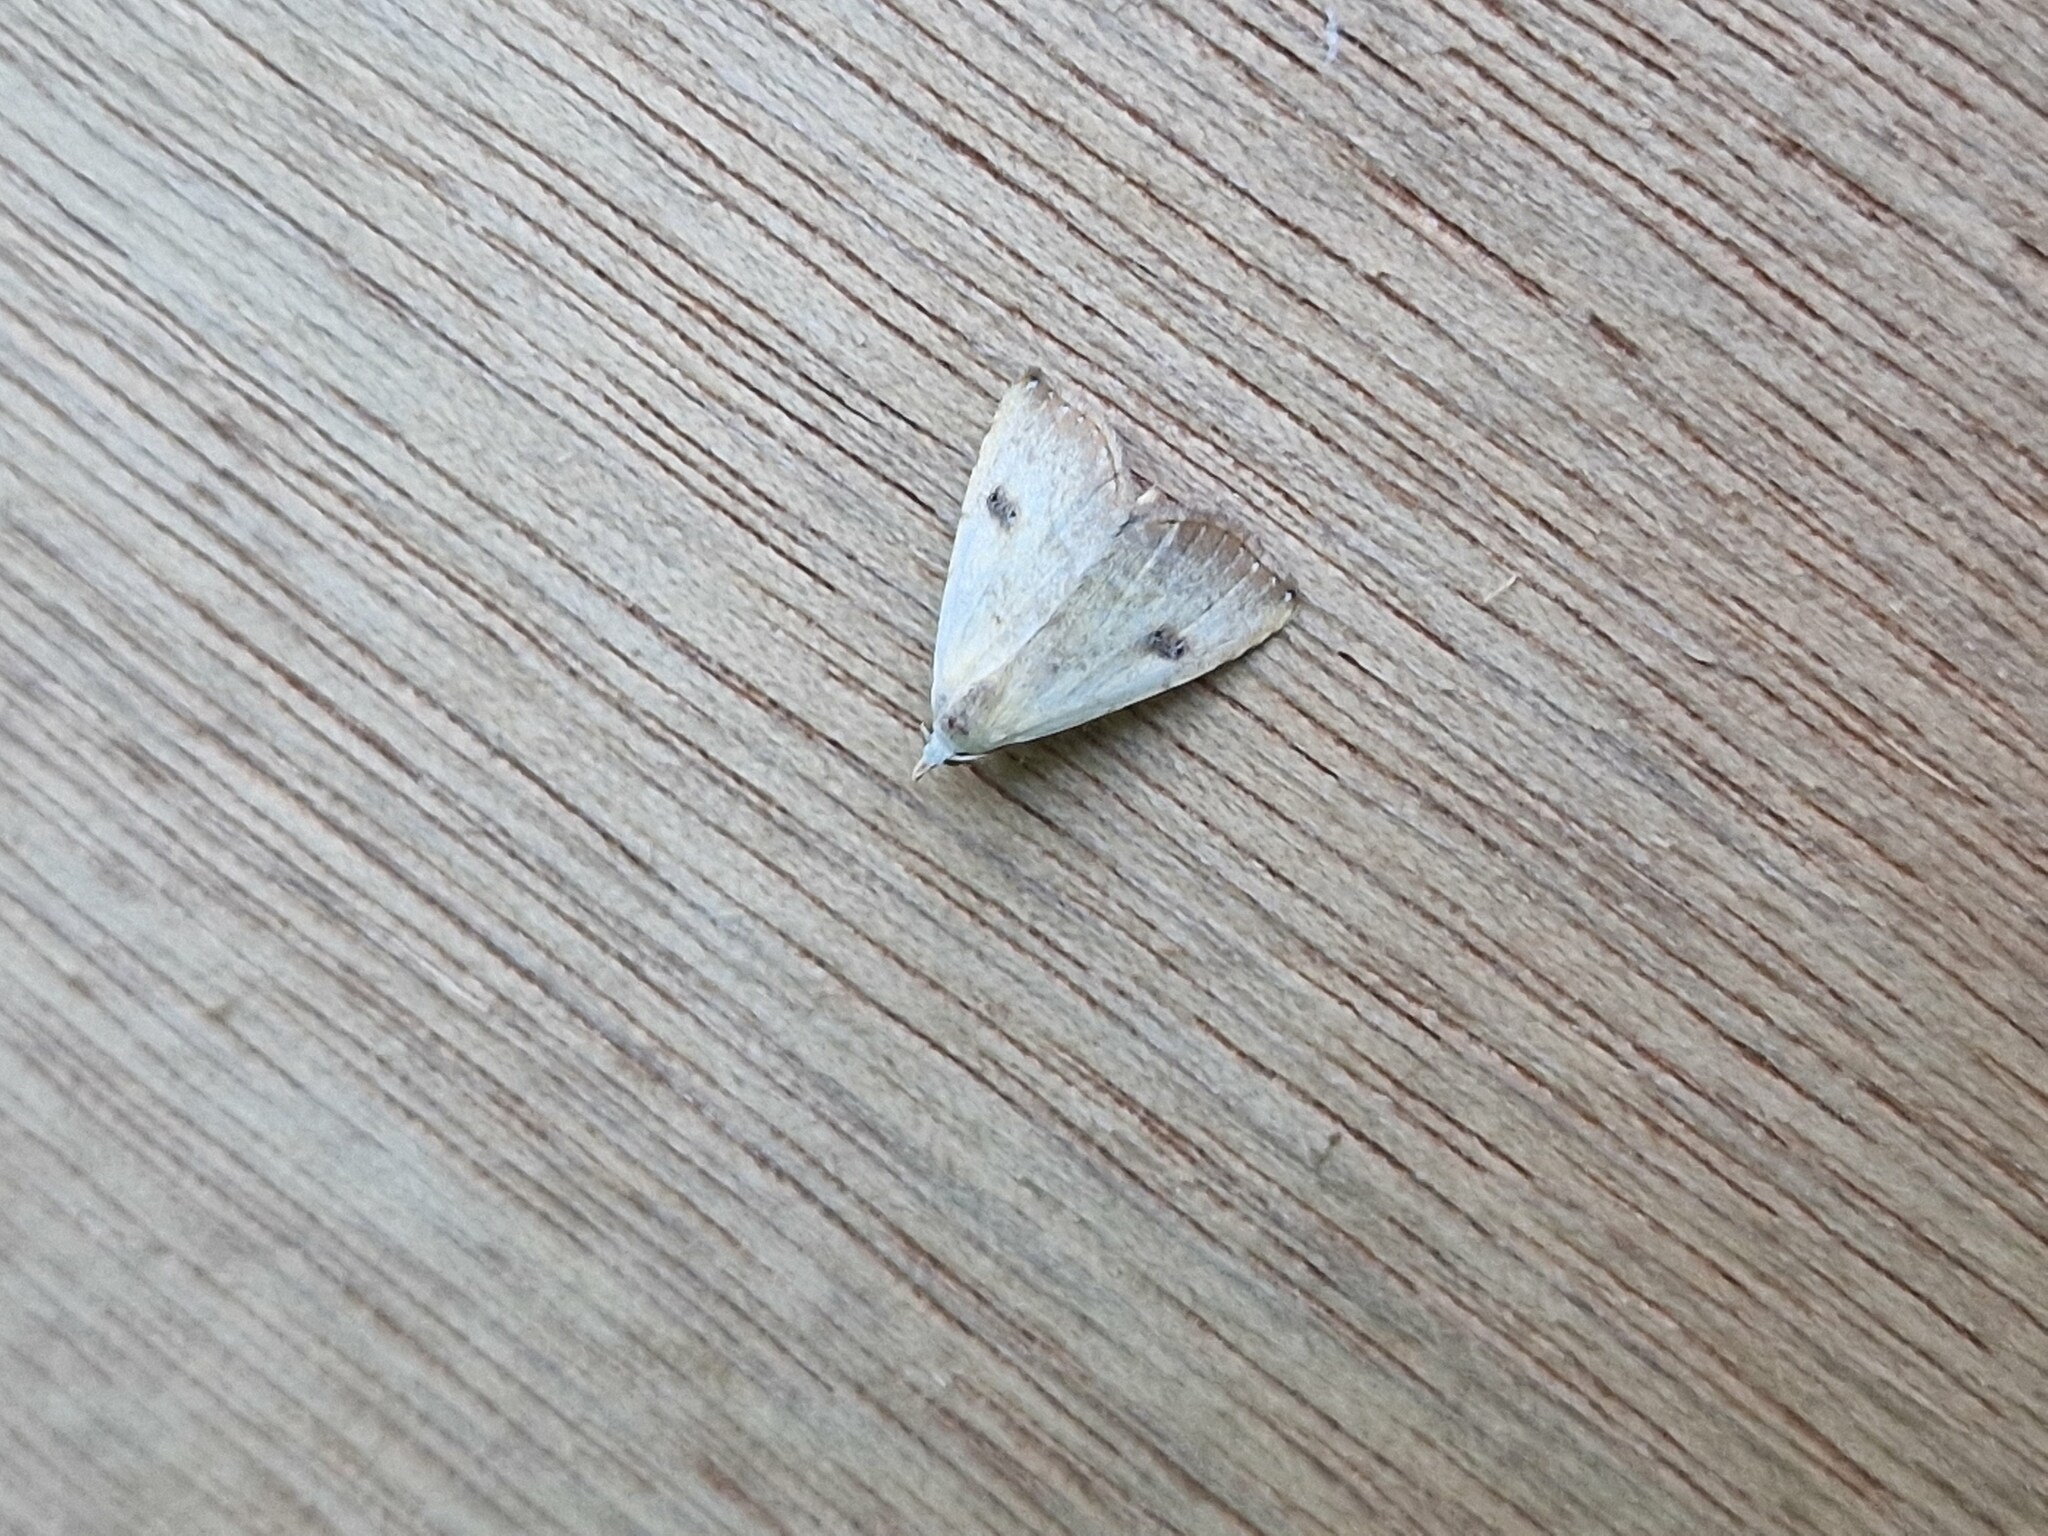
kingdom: Animalia
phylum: Arthropoda
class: Insecta
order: Lepidoptera
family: Erebidae
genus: Rivula
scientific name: Rivula sericealis
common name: Straw dot
